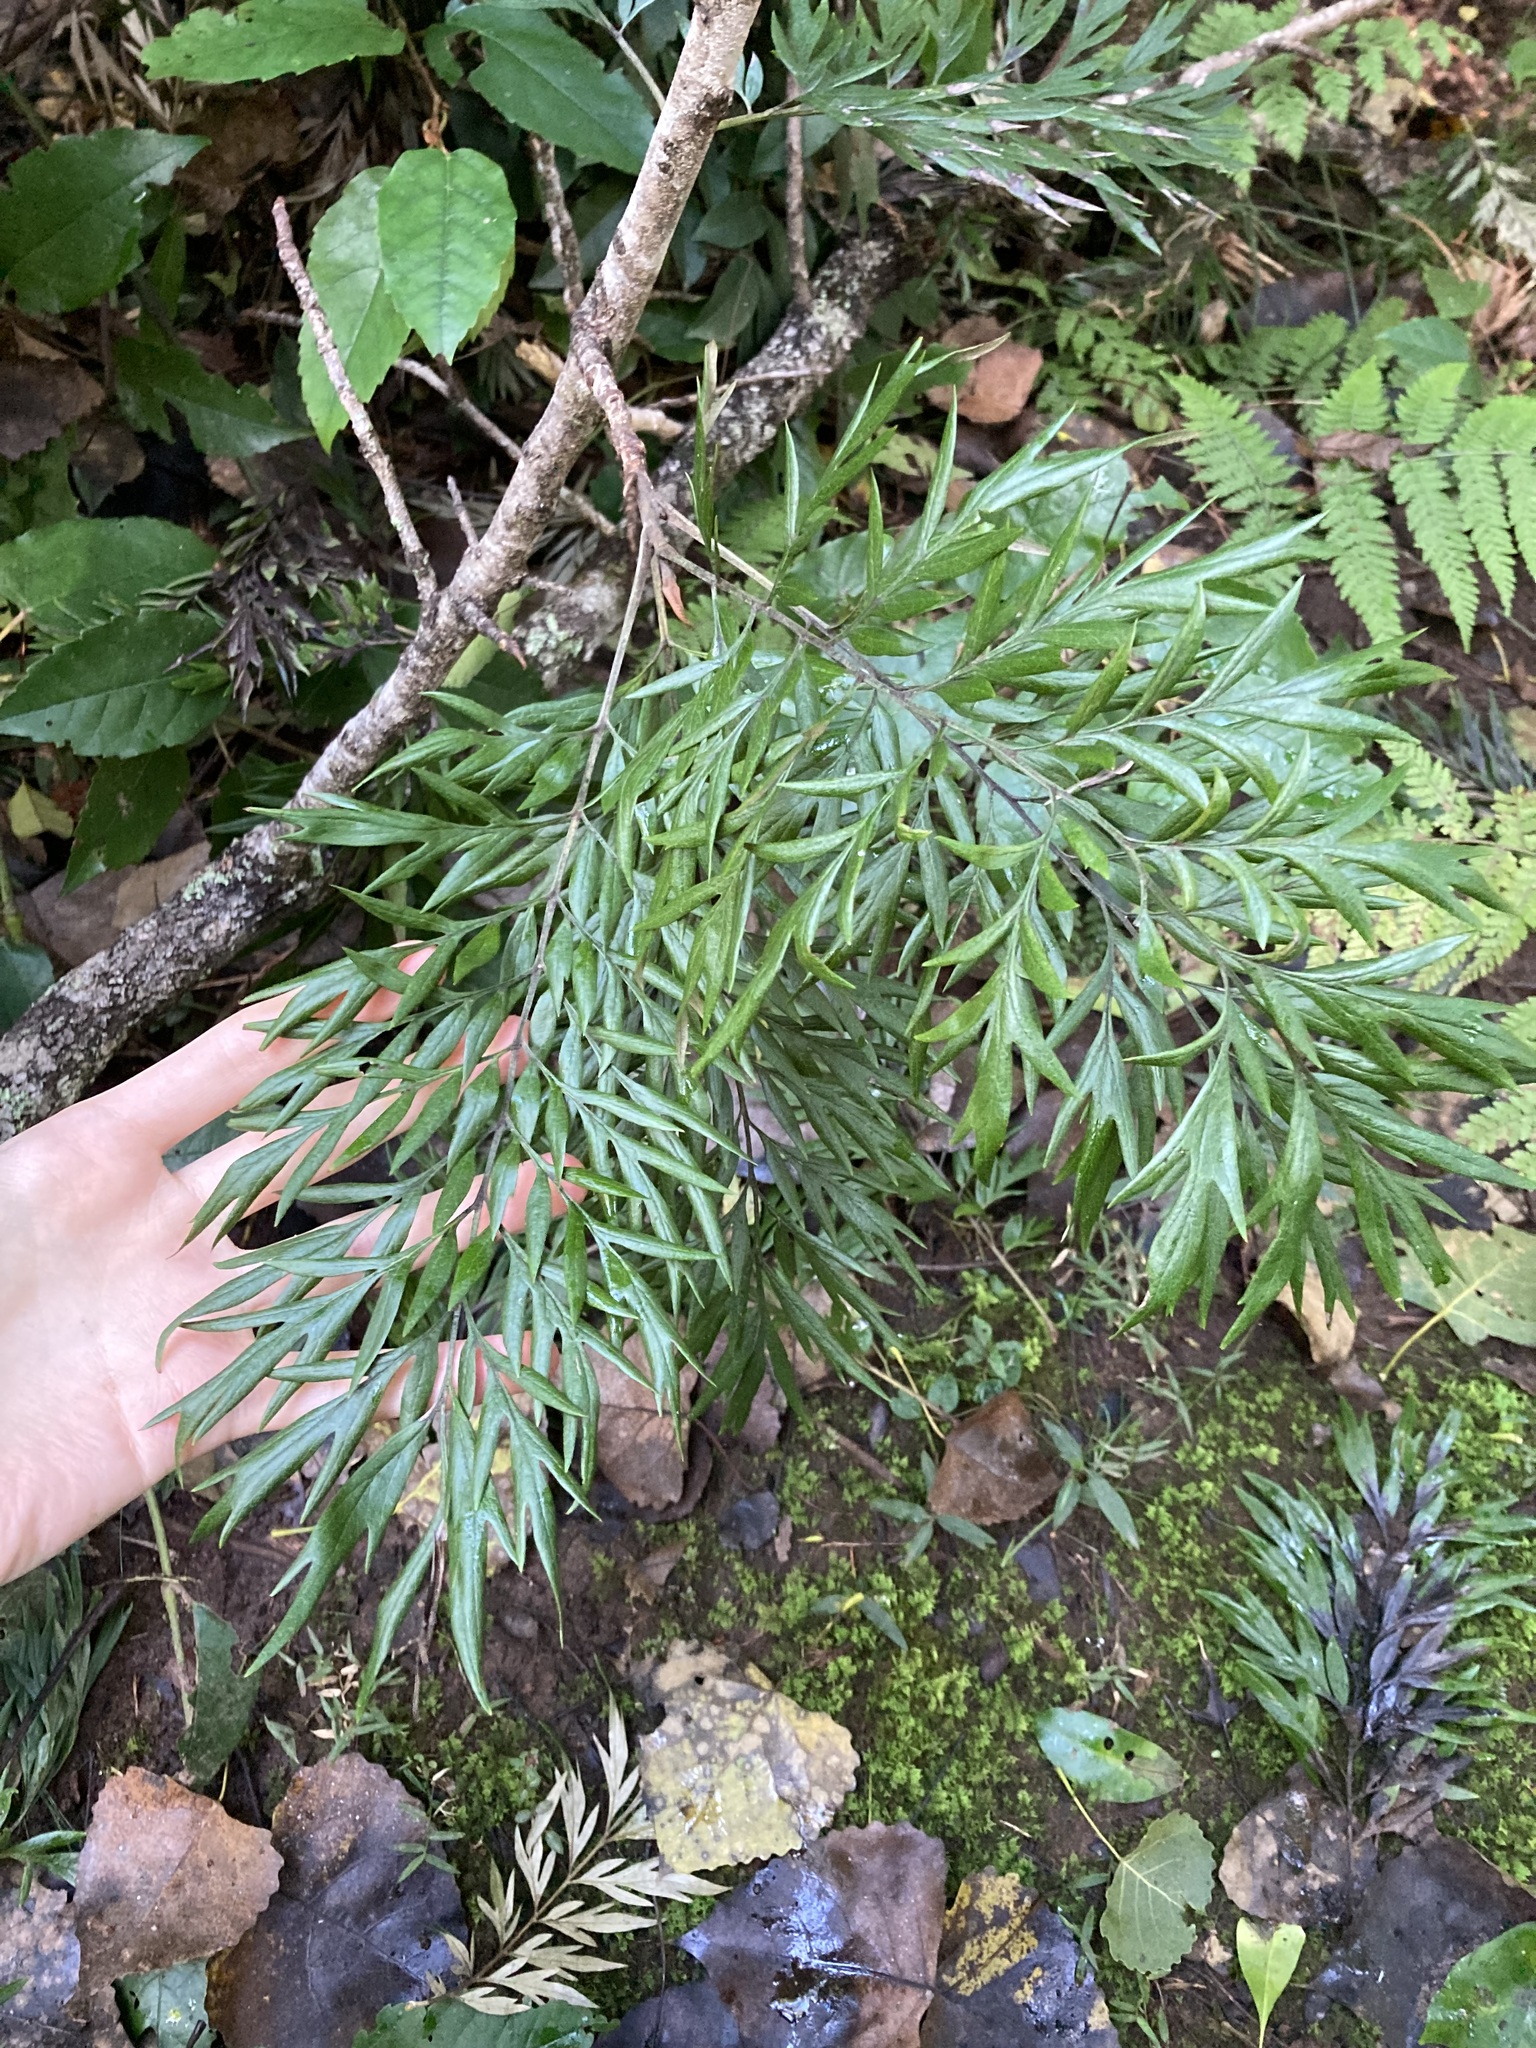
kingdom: Plantae
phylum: Tracheophyta
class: Magnoliopsida
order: Proteales
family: Proteaceae
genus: Grevillea
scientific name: Grevillea robusta
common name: Silkoak
